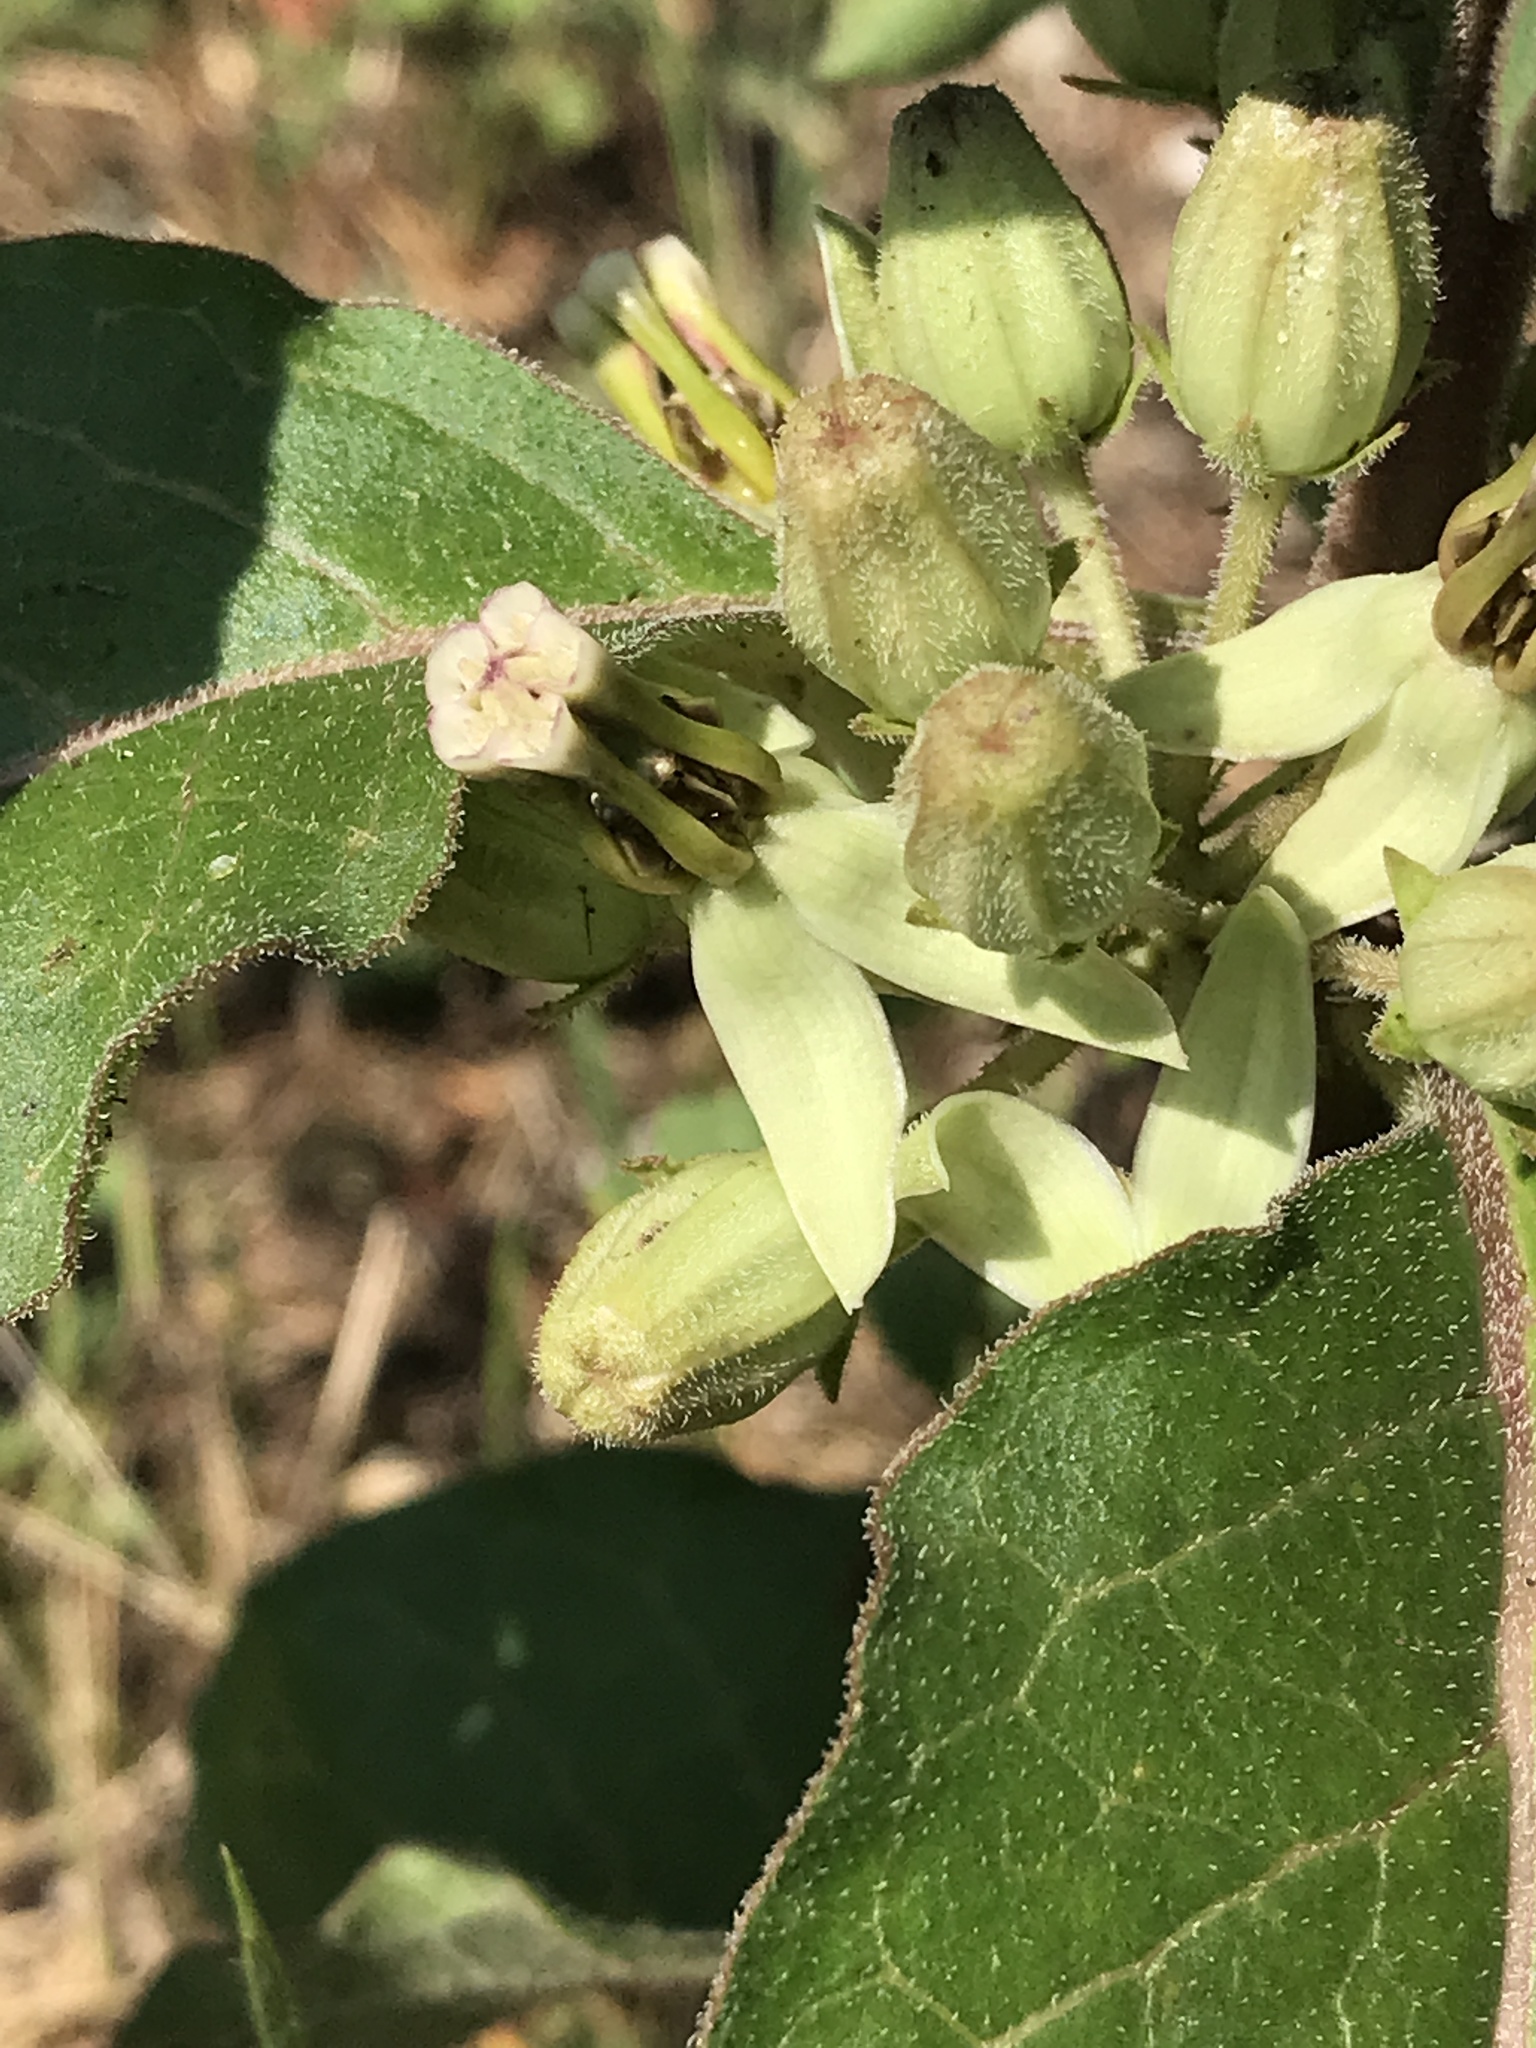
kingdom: Plantae
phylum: Tracheophyta
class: Magnoliopsida
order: Gentianales
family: Apocynaceae
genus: Asclepias
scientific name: Asclepias oenotheroides
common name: Zizotes milkweed
